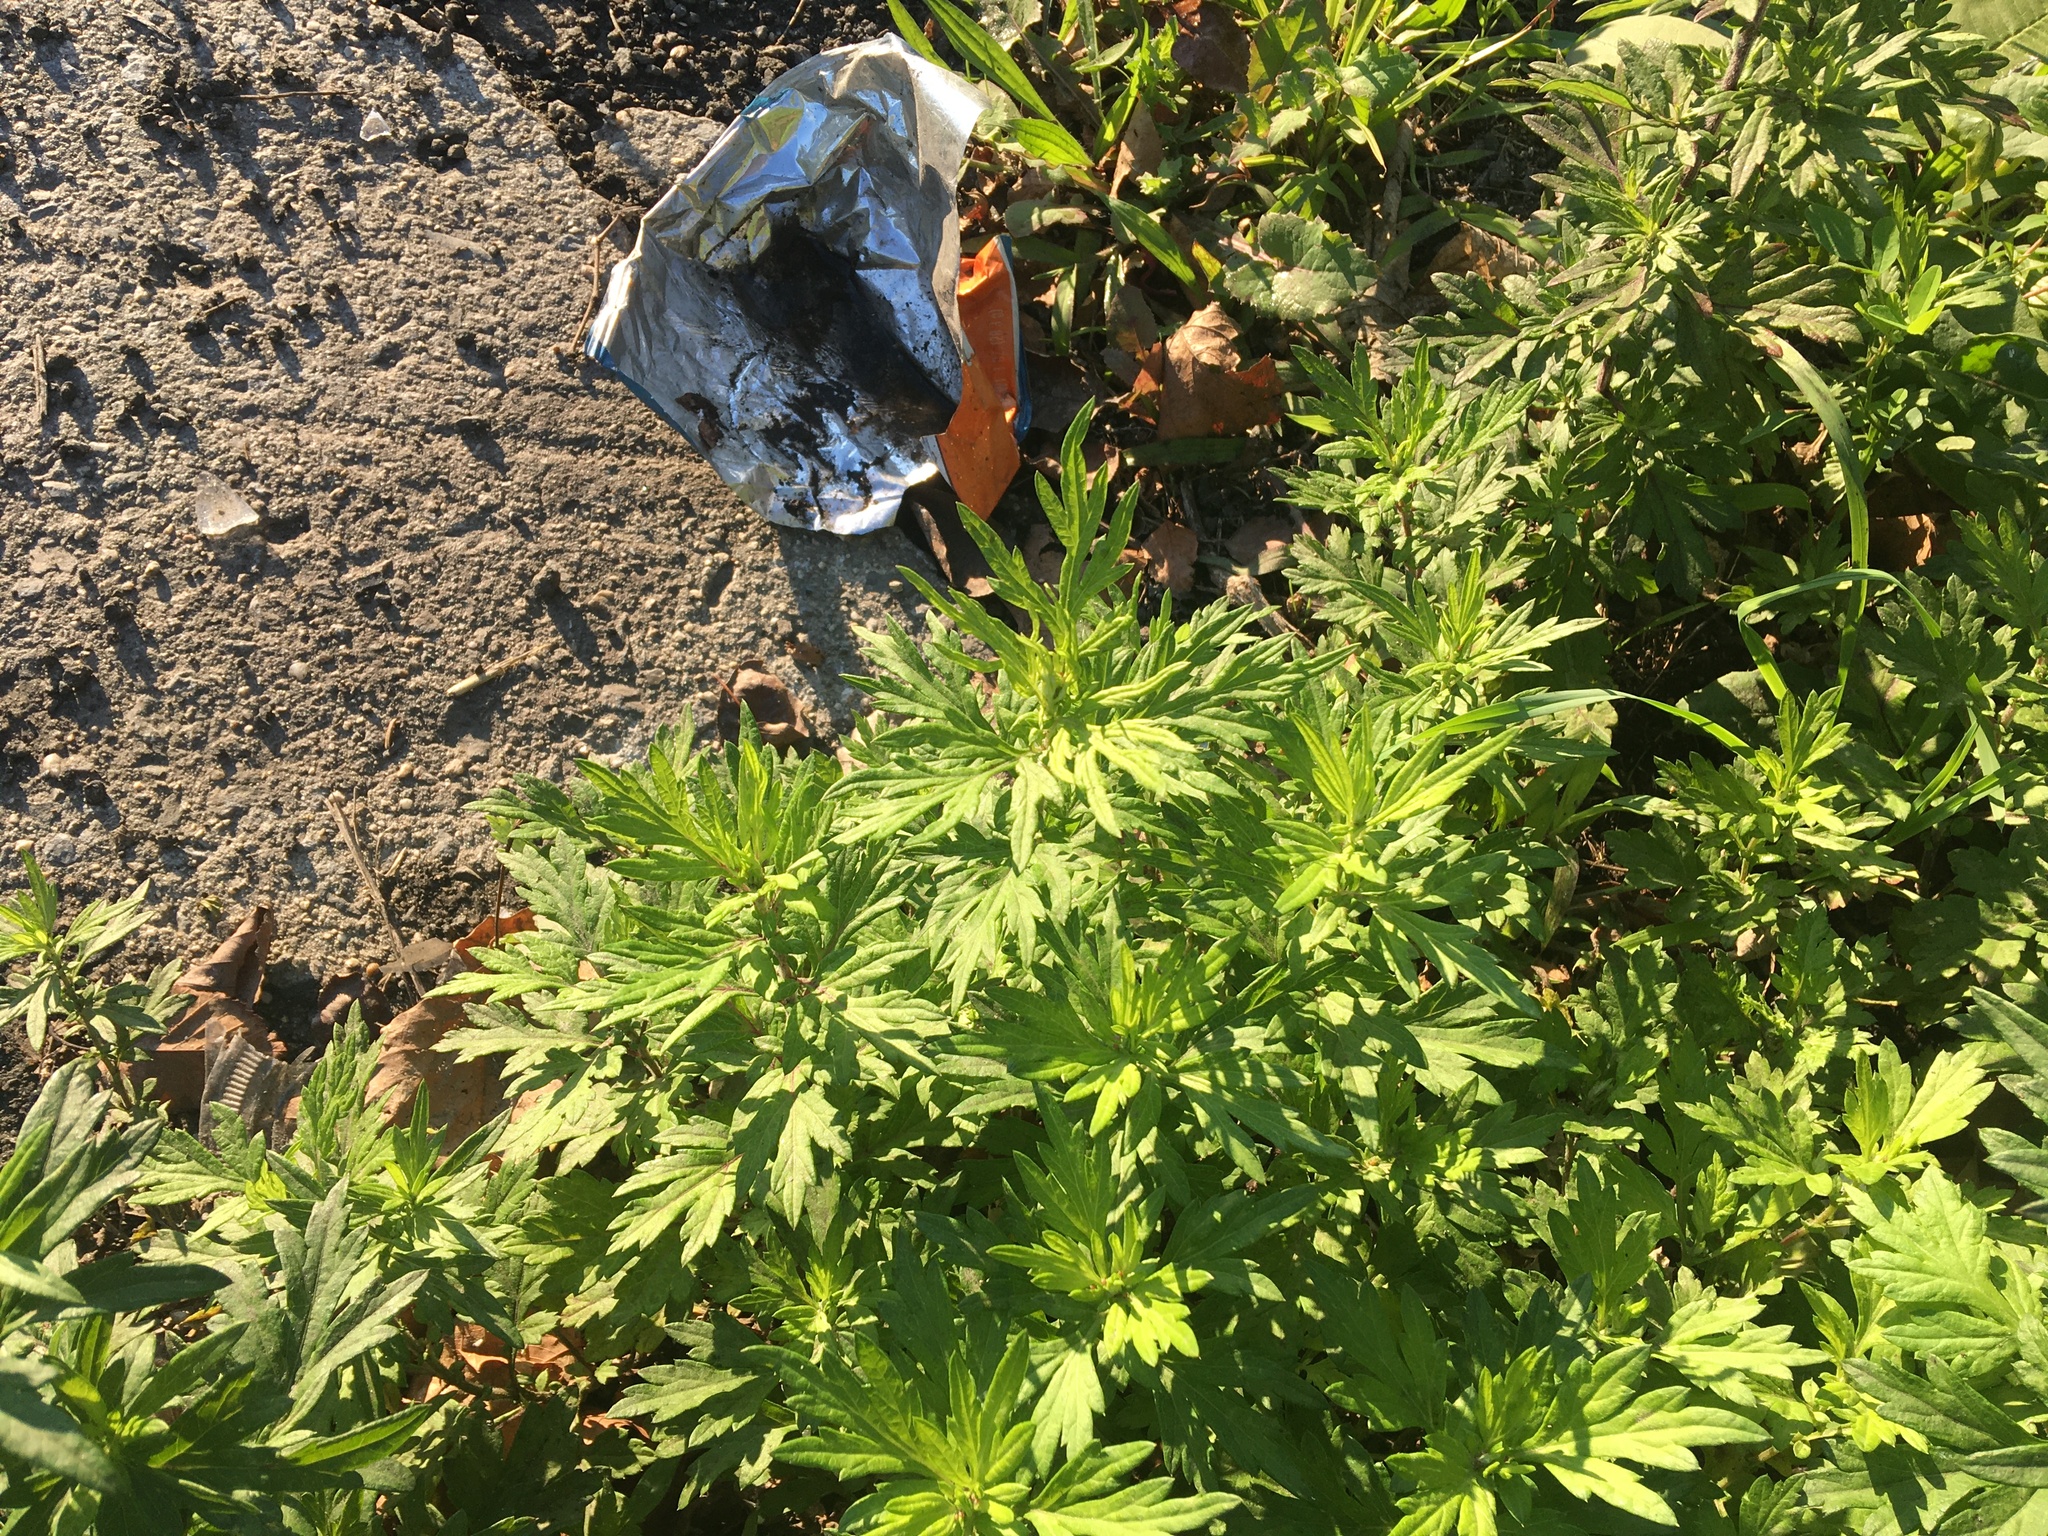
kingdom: Plantae
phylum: Tracheophyta
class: Magnoliopsida
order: Asterales
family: Asteraceae
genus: Artemisia
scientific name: Artemisia vulgaris
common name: Mugwort
